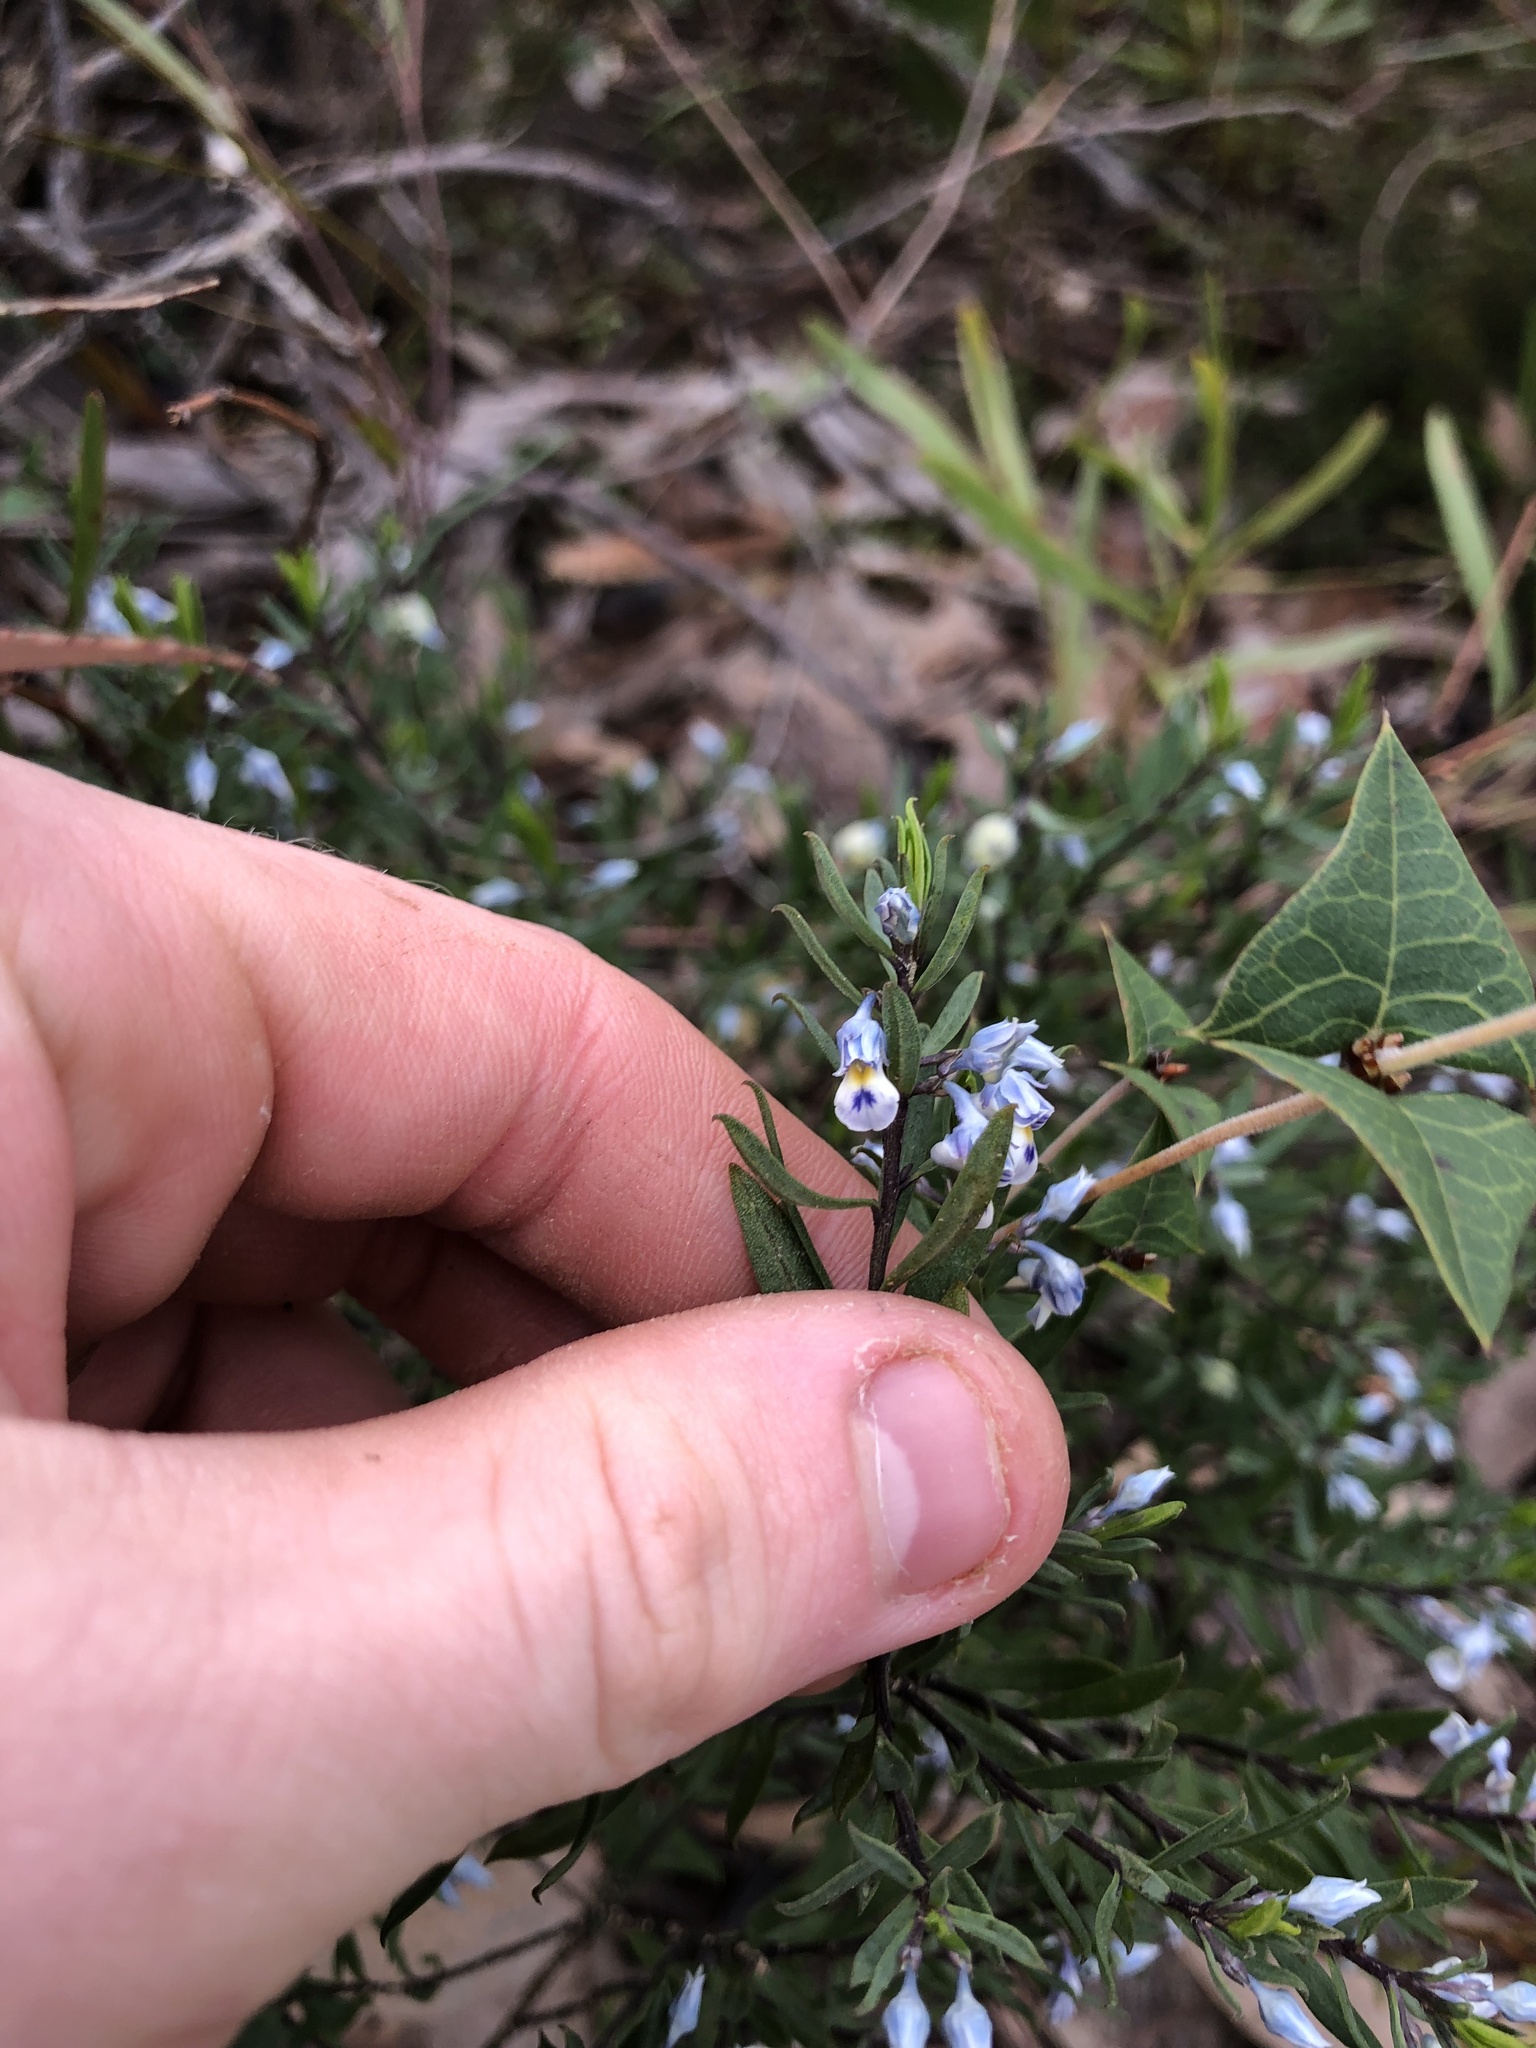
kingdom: Plantae
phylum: Tracheophyta
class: Magnoliopsida
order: Malpighiales
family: Violaceae
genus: Pigea
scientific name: Pigea floribunda
